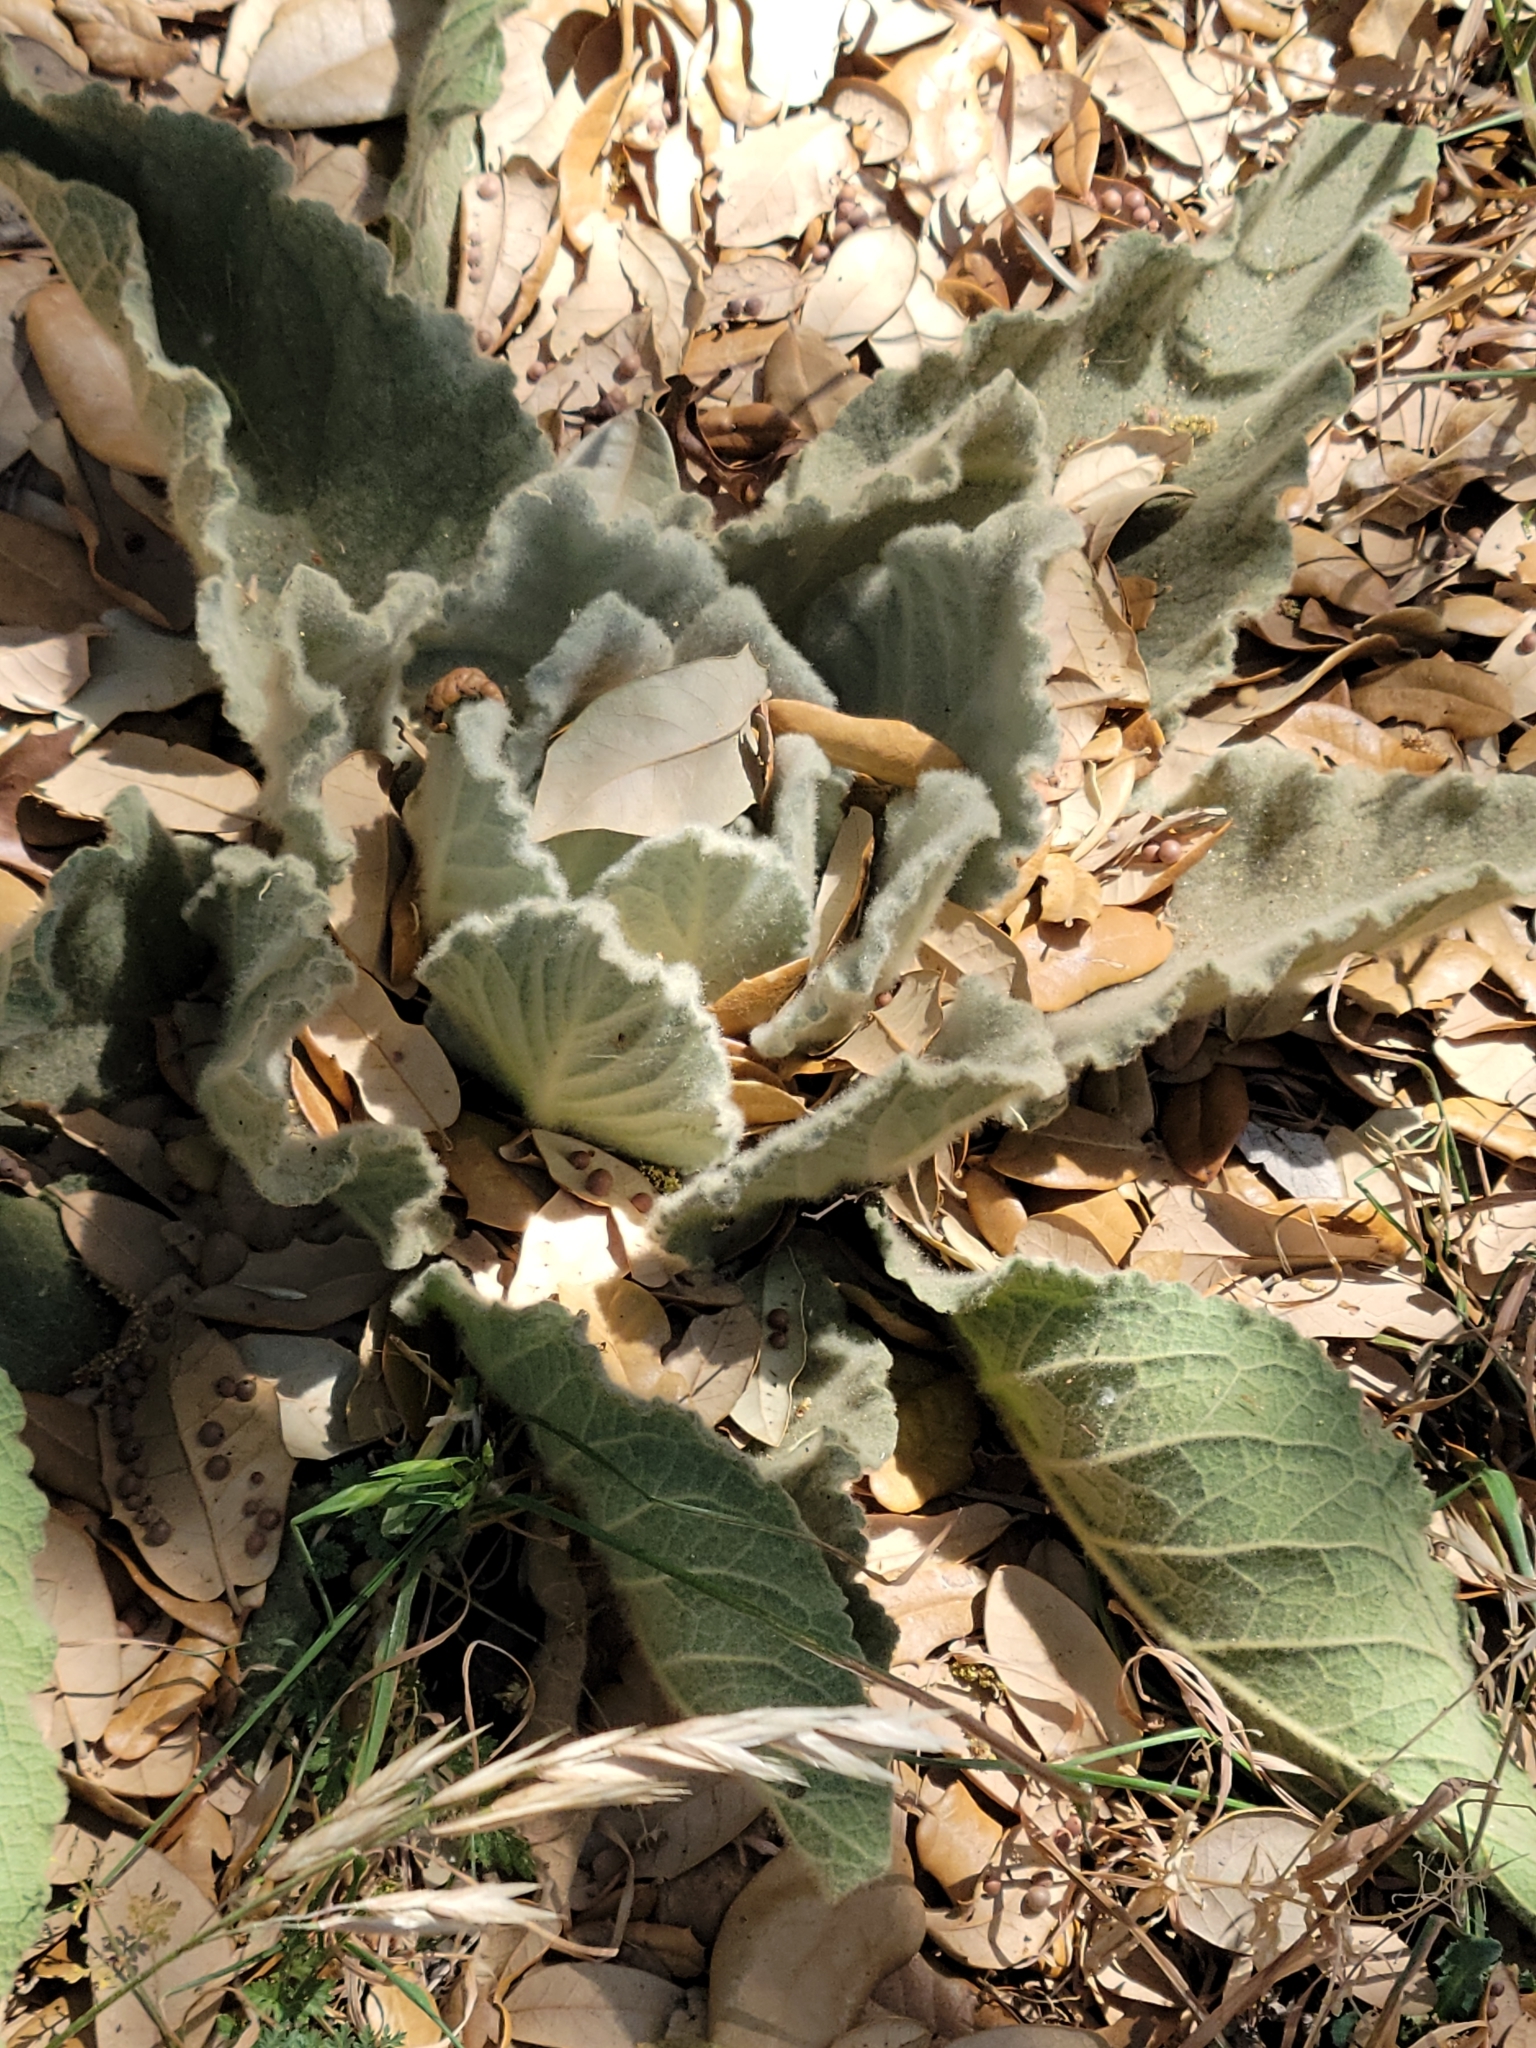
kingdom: Plantae
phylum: Tracheophyta
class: Magnoliopsida
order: Lamiales
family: Scrophulariaceae
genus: Verbascum
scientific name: Verbascum thapsus
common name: Common mullein
